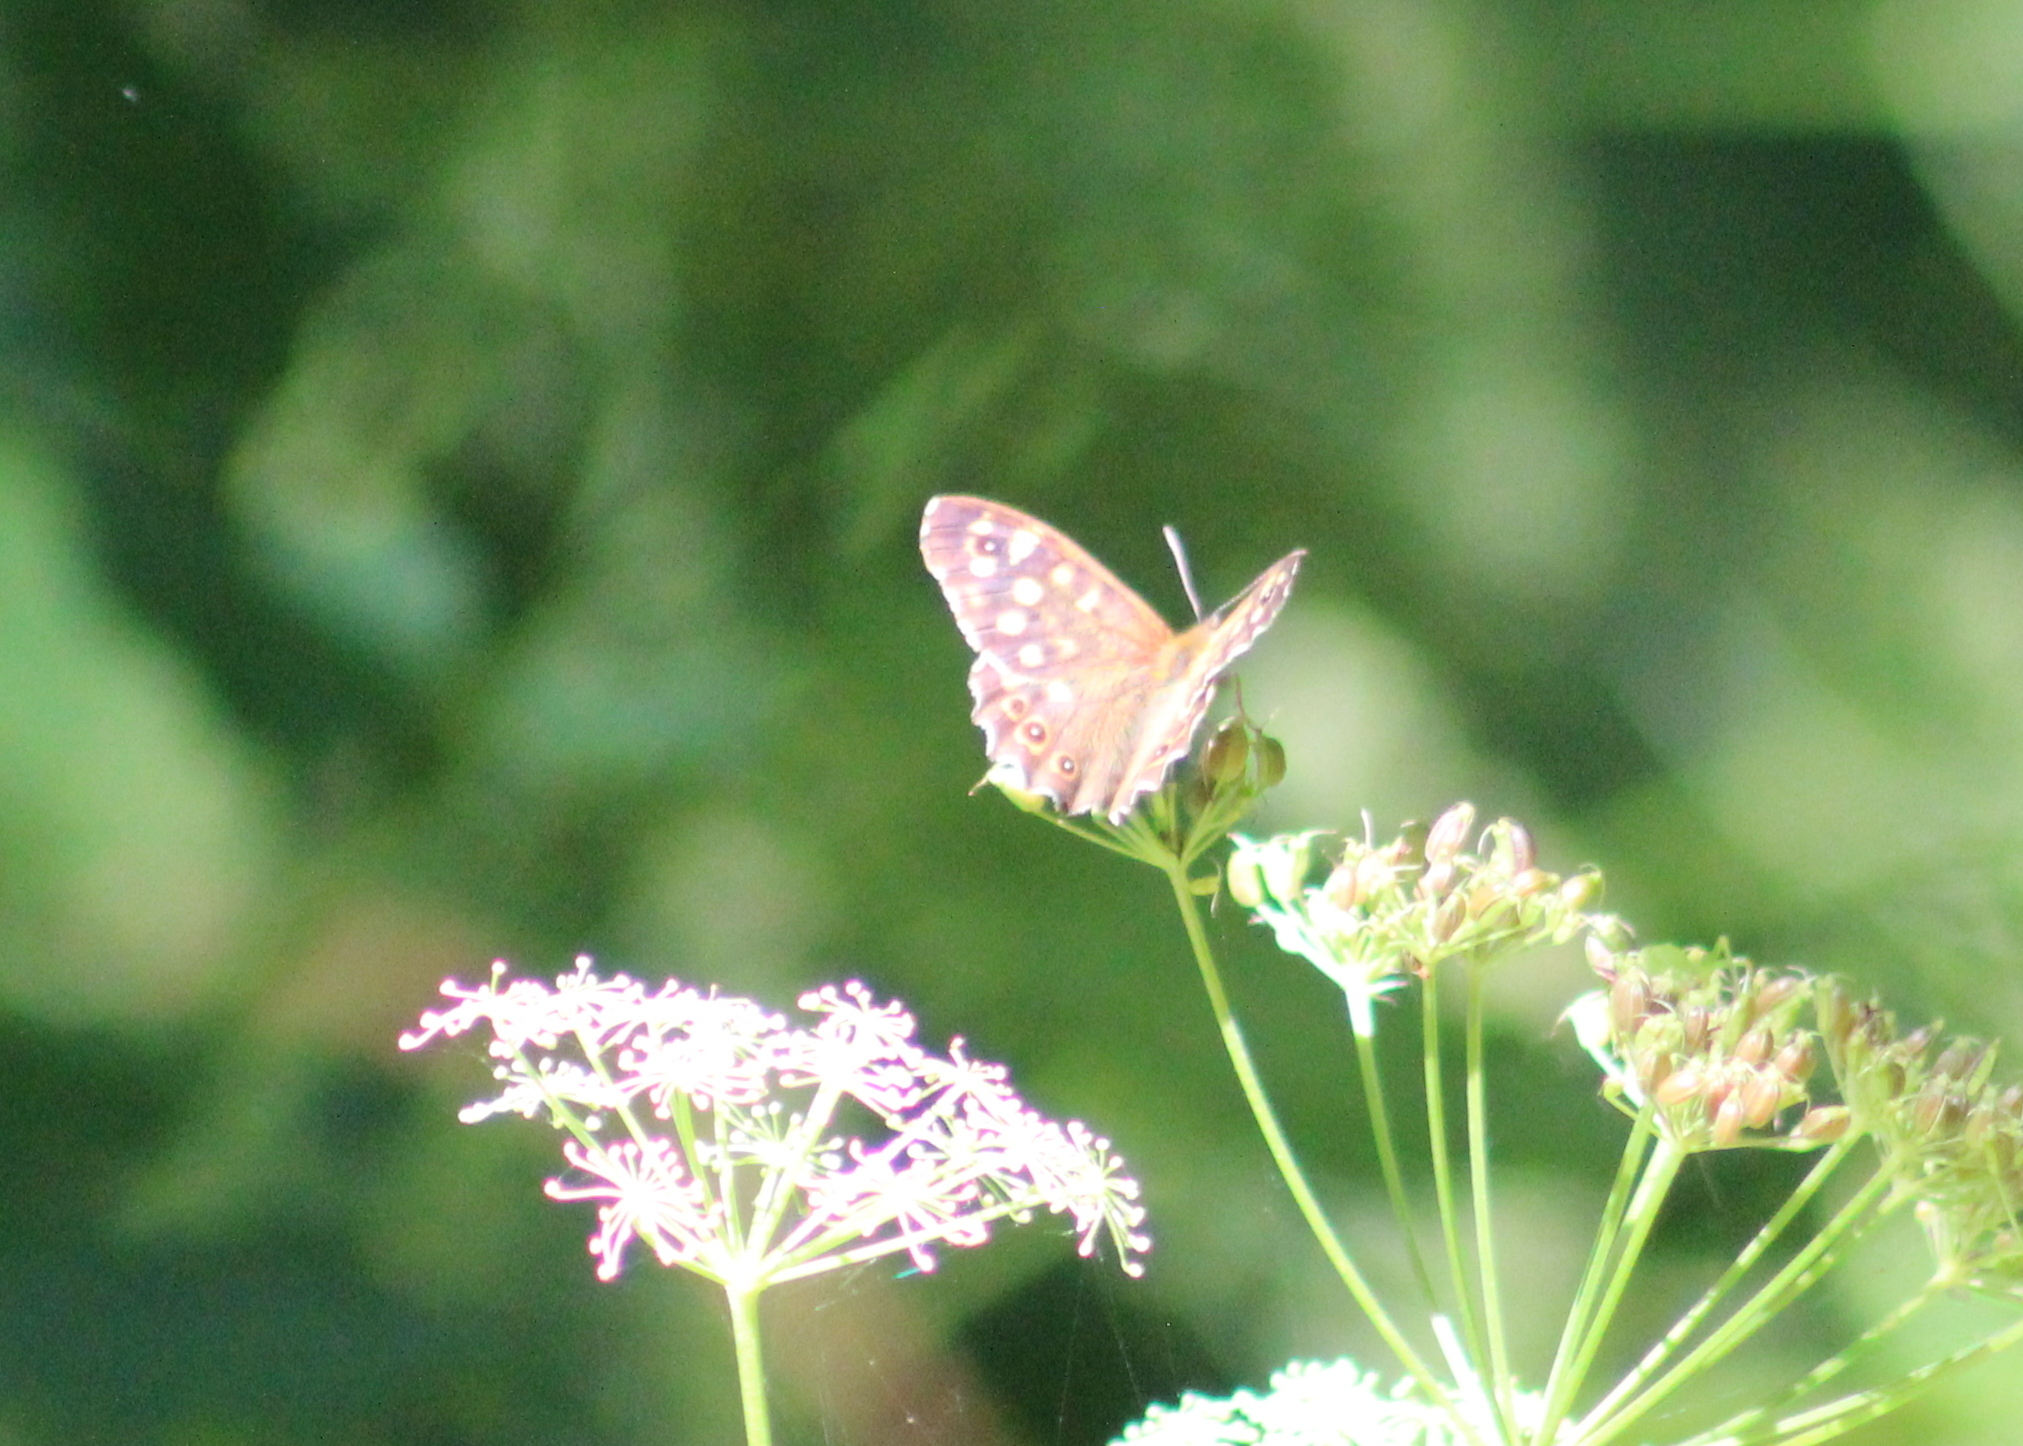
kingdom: Animalia
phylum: Arthropoda
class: Insecta
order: Lepidoptera
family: Nymphalidae
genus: Pararge
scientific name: Pararge aegeria
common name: Speckled wood
